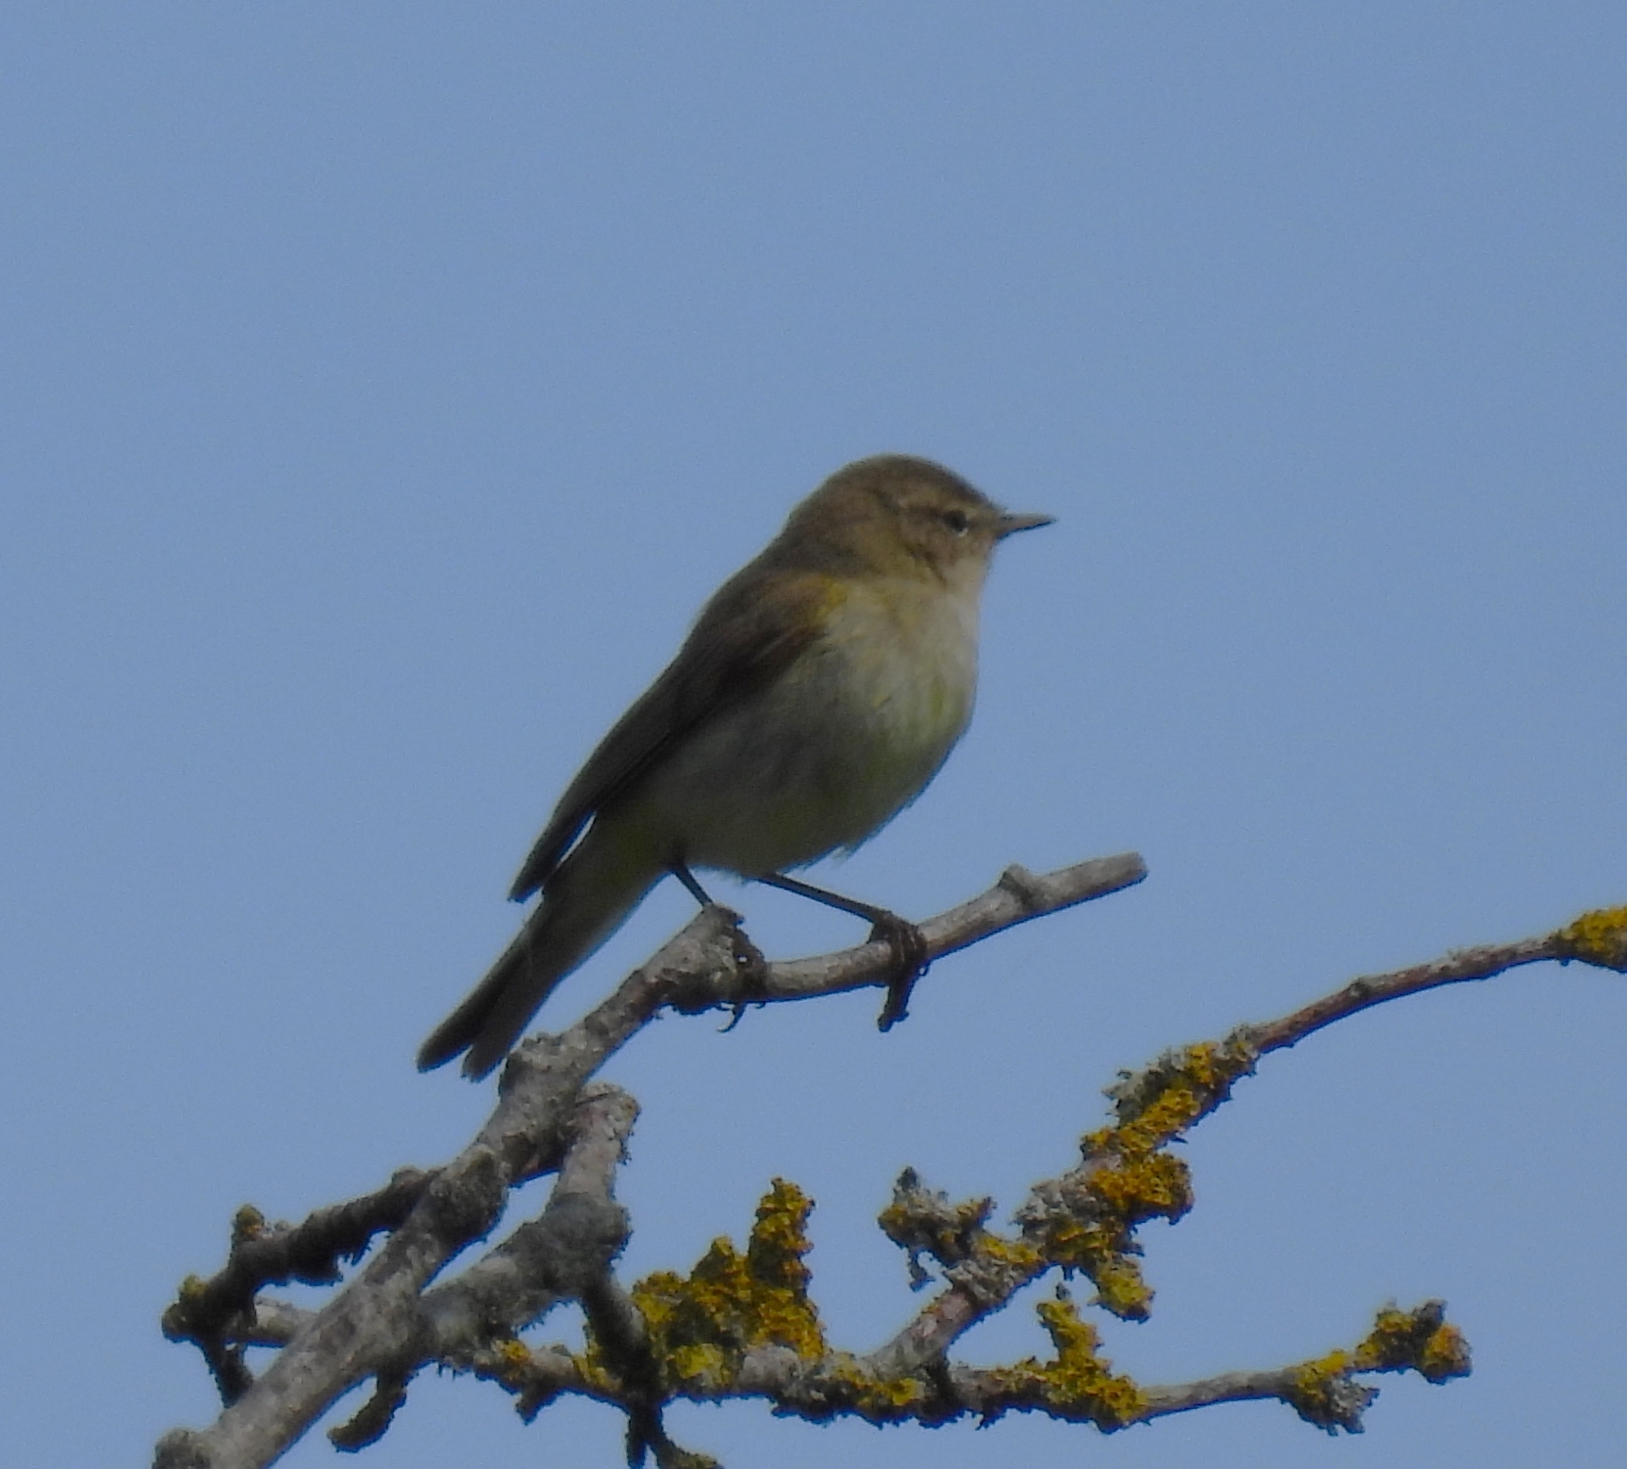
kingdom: Animalia
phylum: Chordata
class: Aves
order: Passeriformes
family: Phylloscopidae
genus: Phylloscopus
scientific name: Phylloscopus collybita
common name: Common chiffchaff
